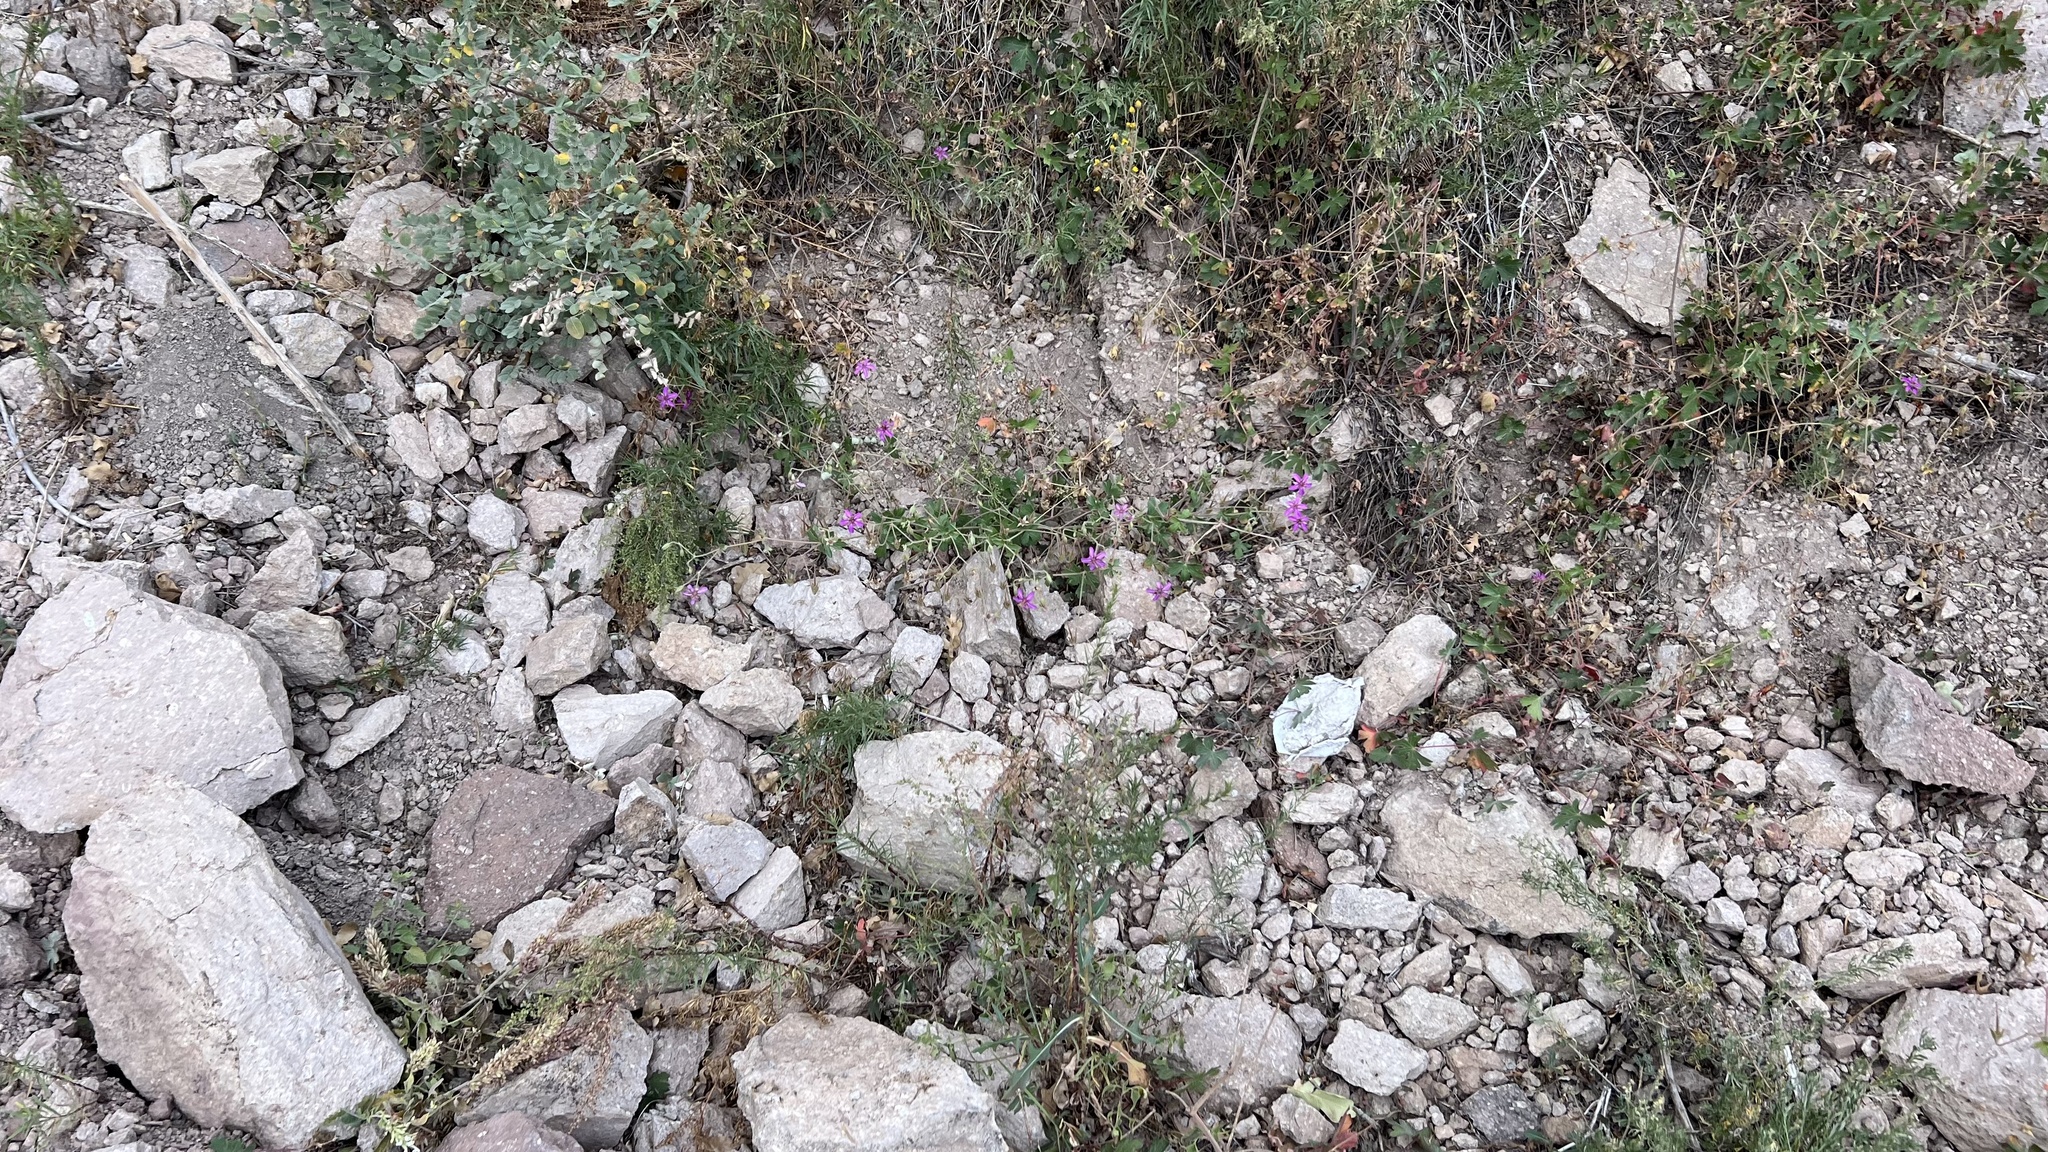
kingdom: Plantae
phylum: Tracheophyta
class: Magnoliopsida
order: Geraniales
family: Geraniaceae
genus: Geranium
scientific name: Geranium caespitosum
